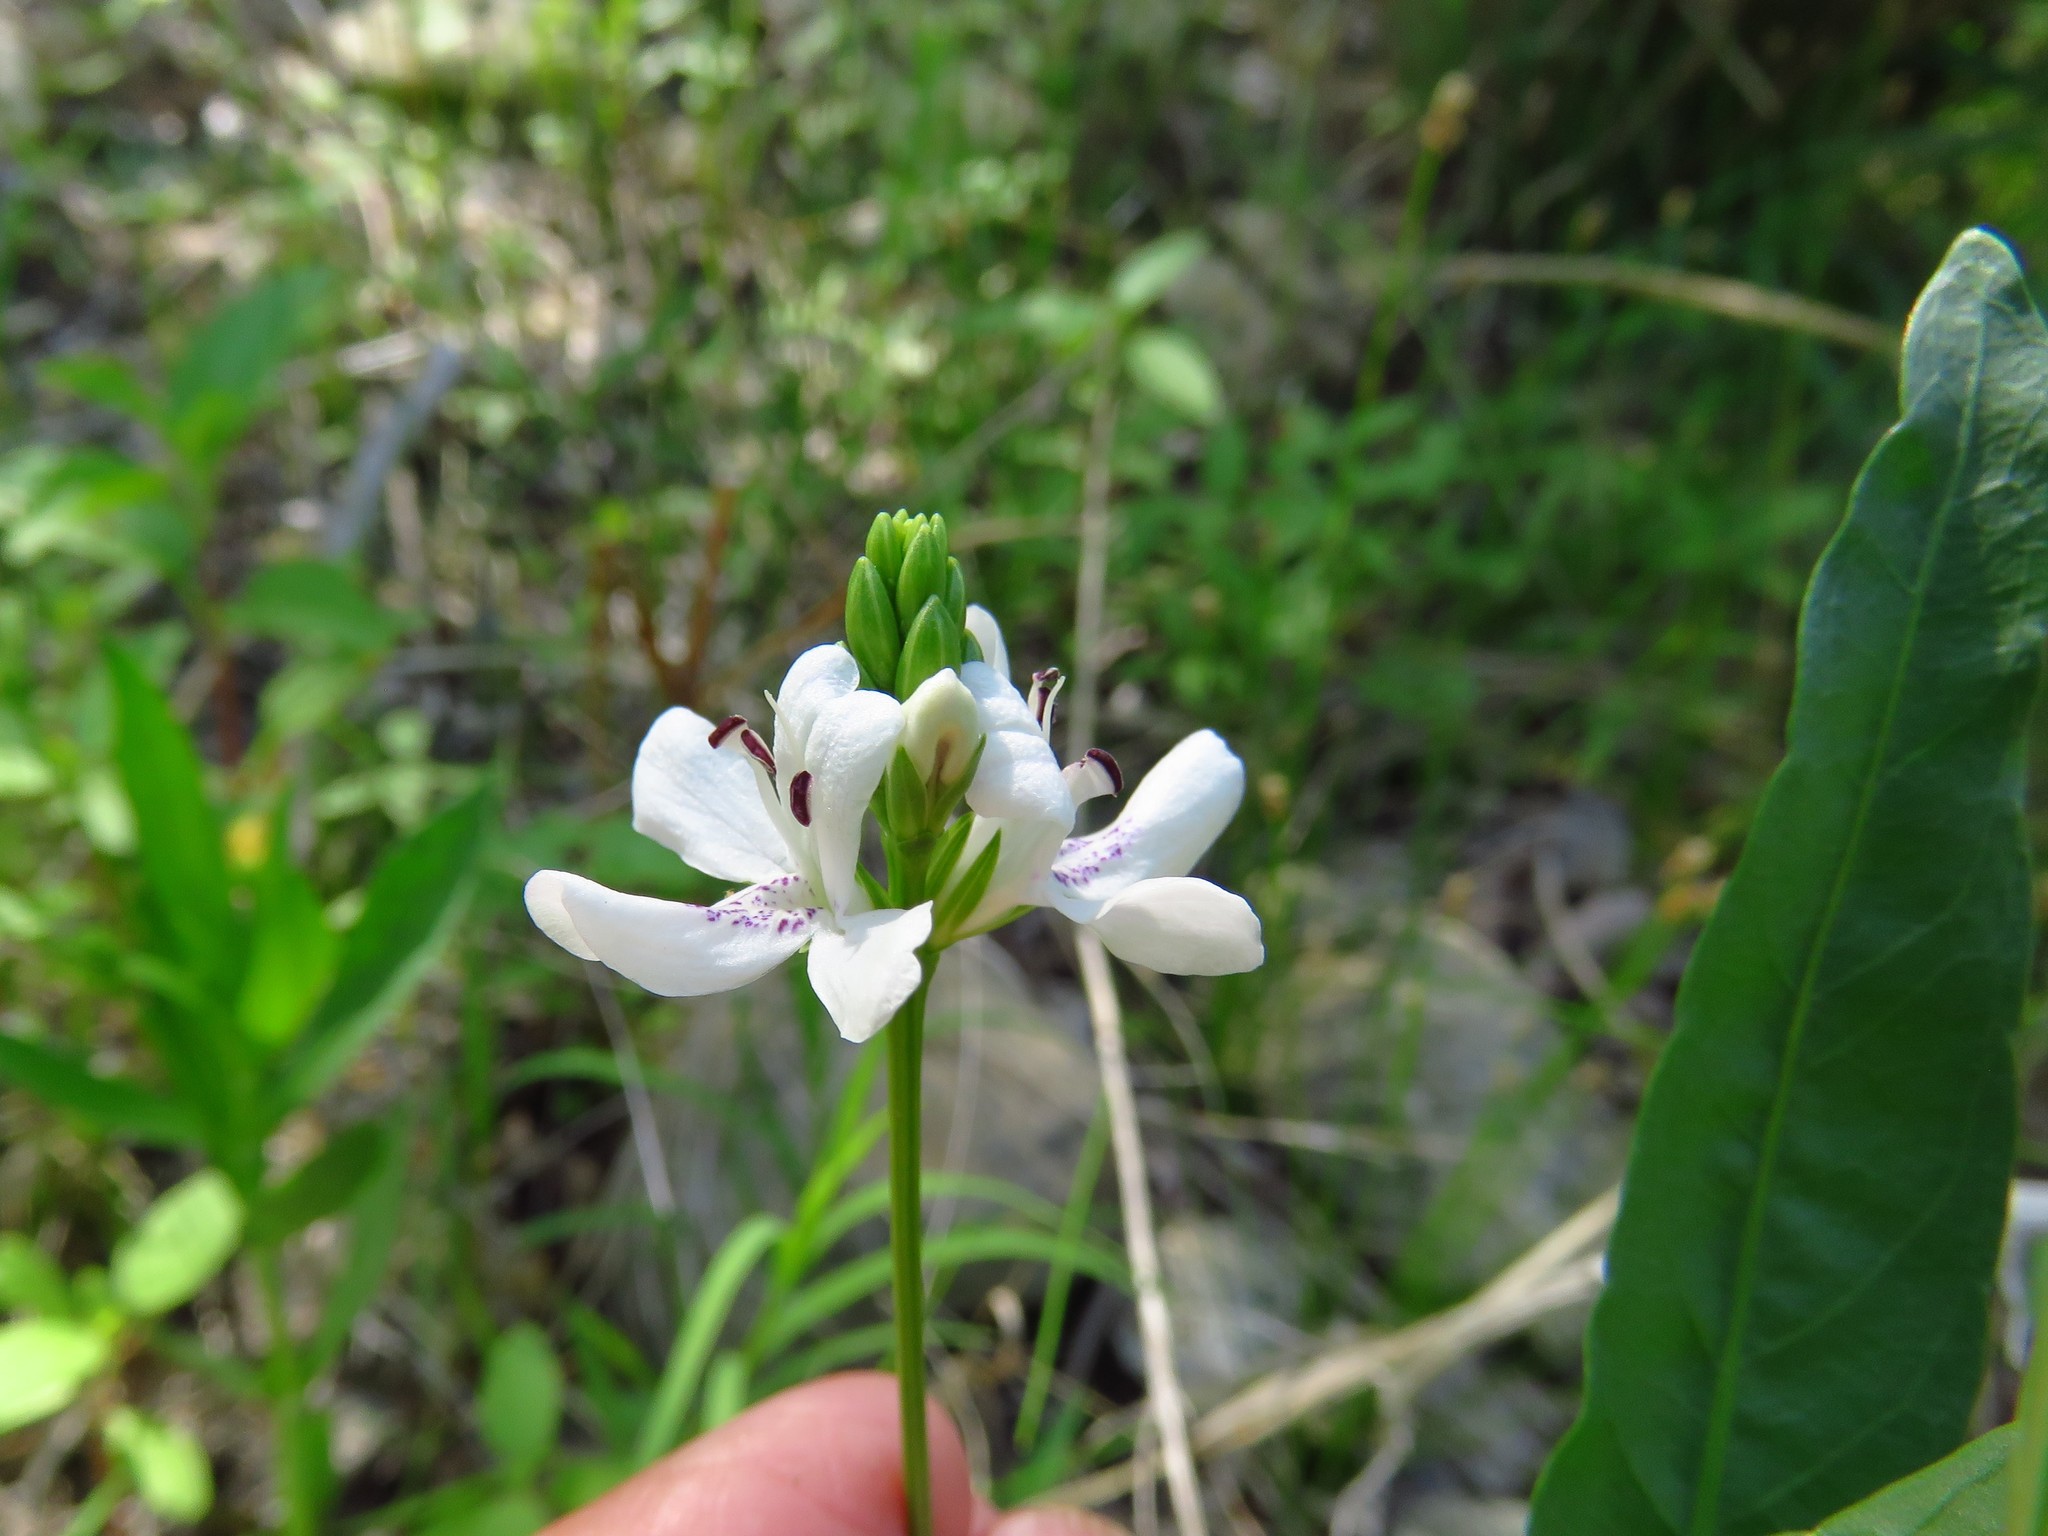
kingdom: Plantae
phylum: Tracheophyta
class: Magnoliopsida
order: Lamiales
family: Acanthaceae
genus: Dianthera
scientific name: Dianthera americana
